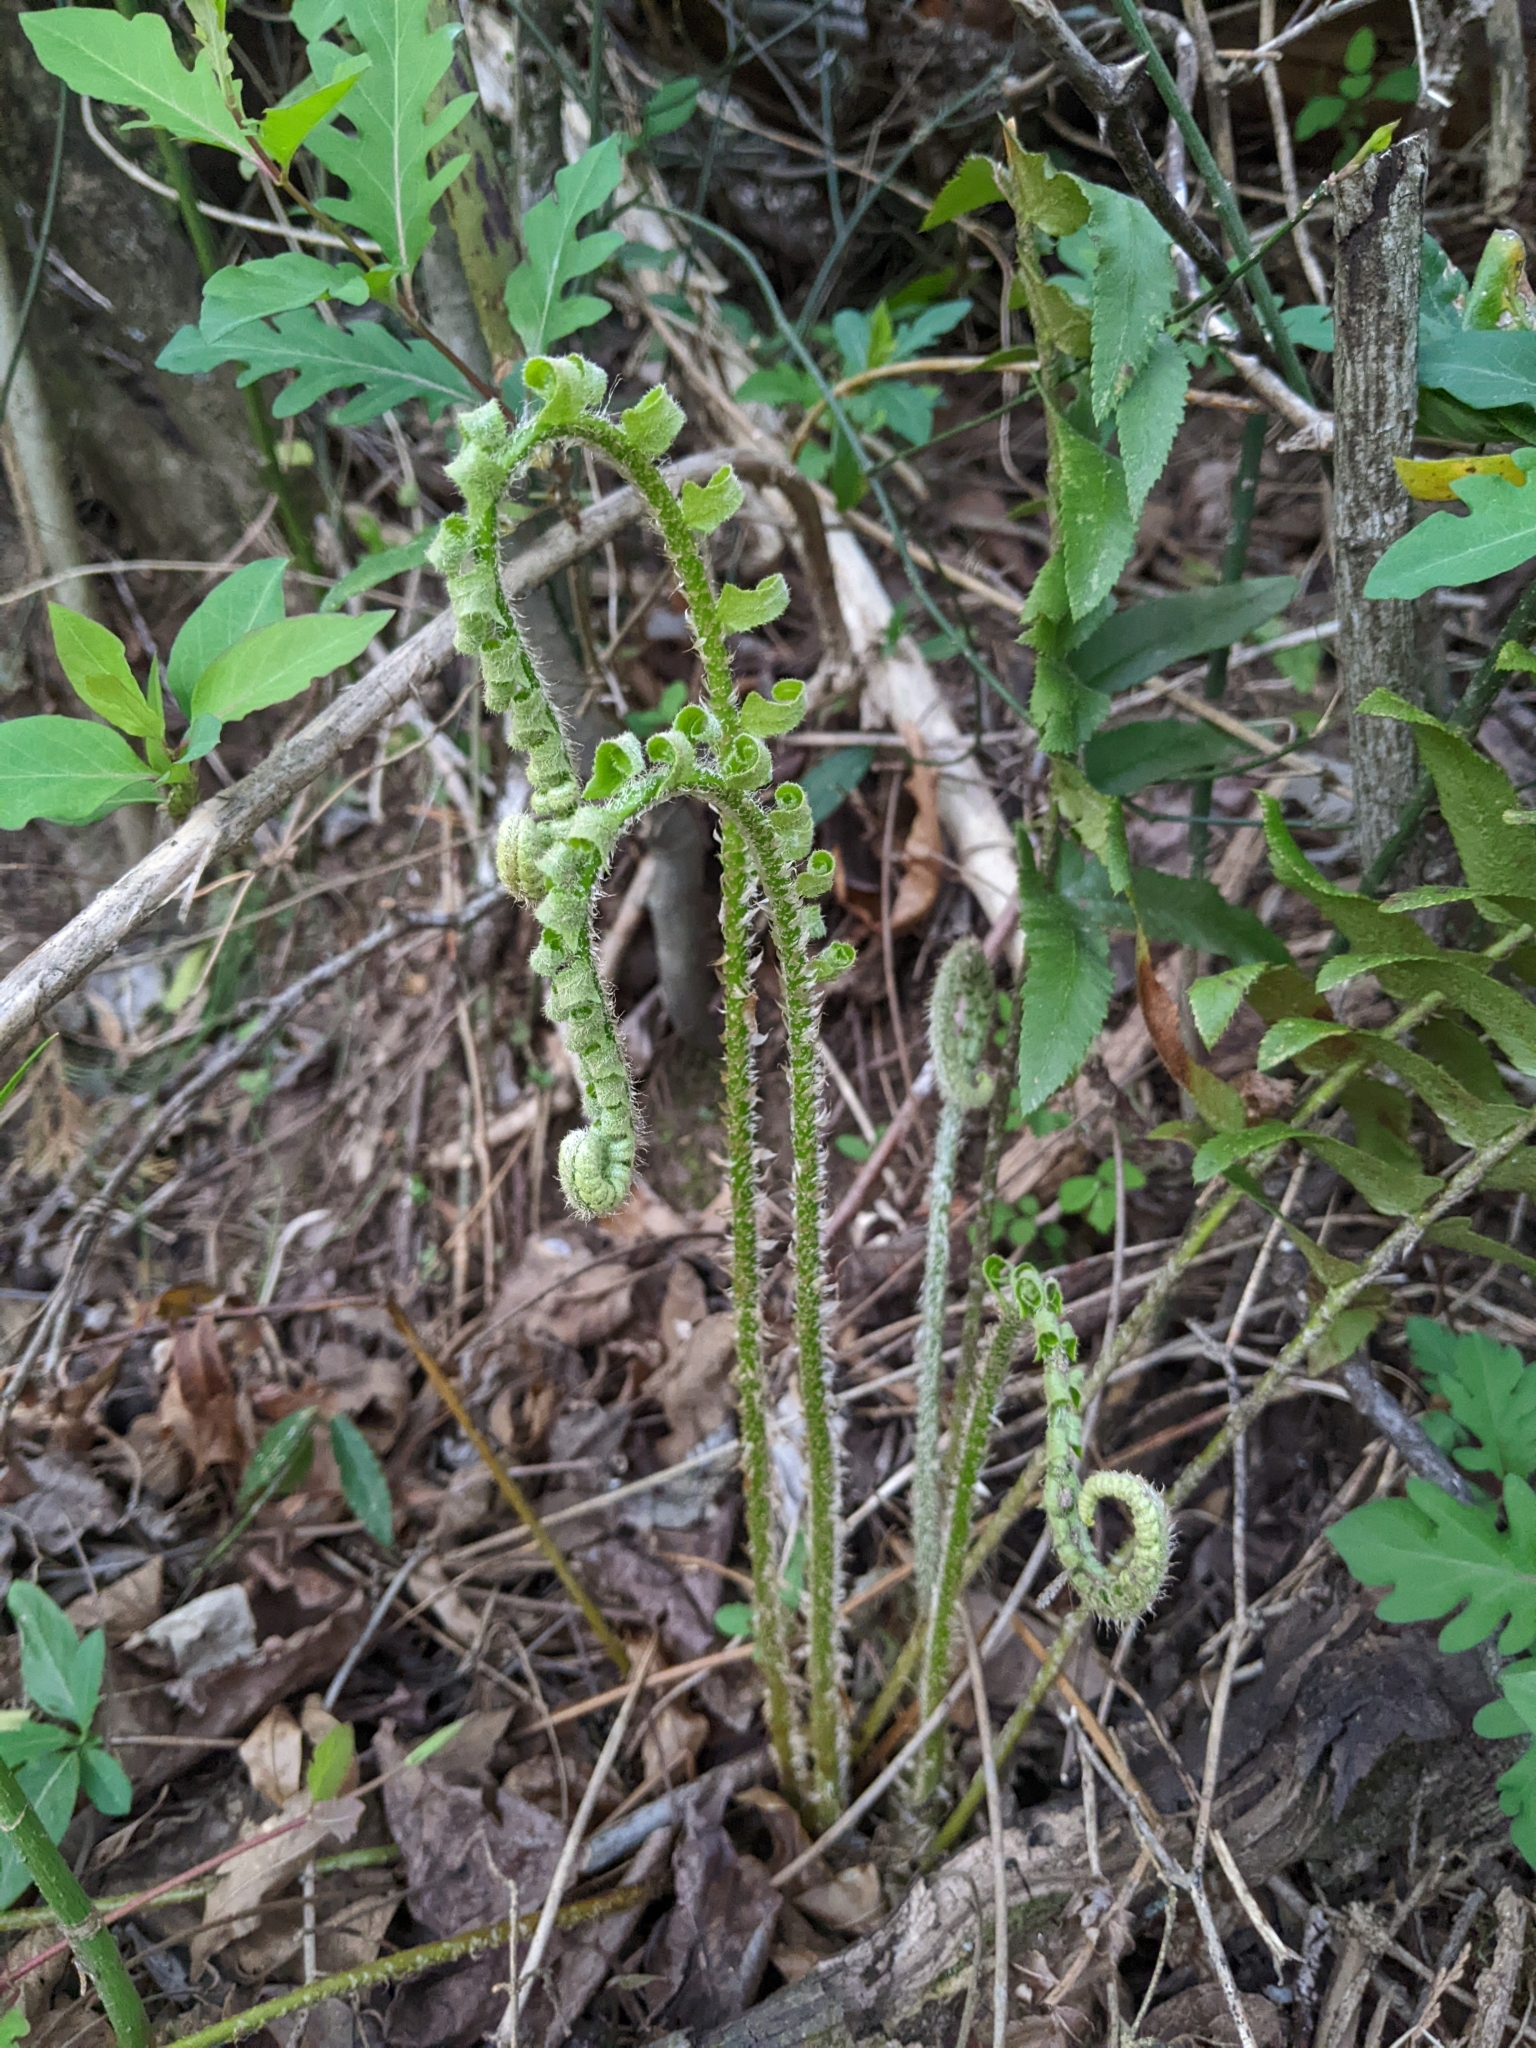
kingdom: Plantae
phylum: Tracheophyta
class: Polypodiopsida
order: Polypodiales
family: Dryopteridaceae
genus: Polystichum
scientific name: Polystichum acrostichoides
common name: Christmas fern
